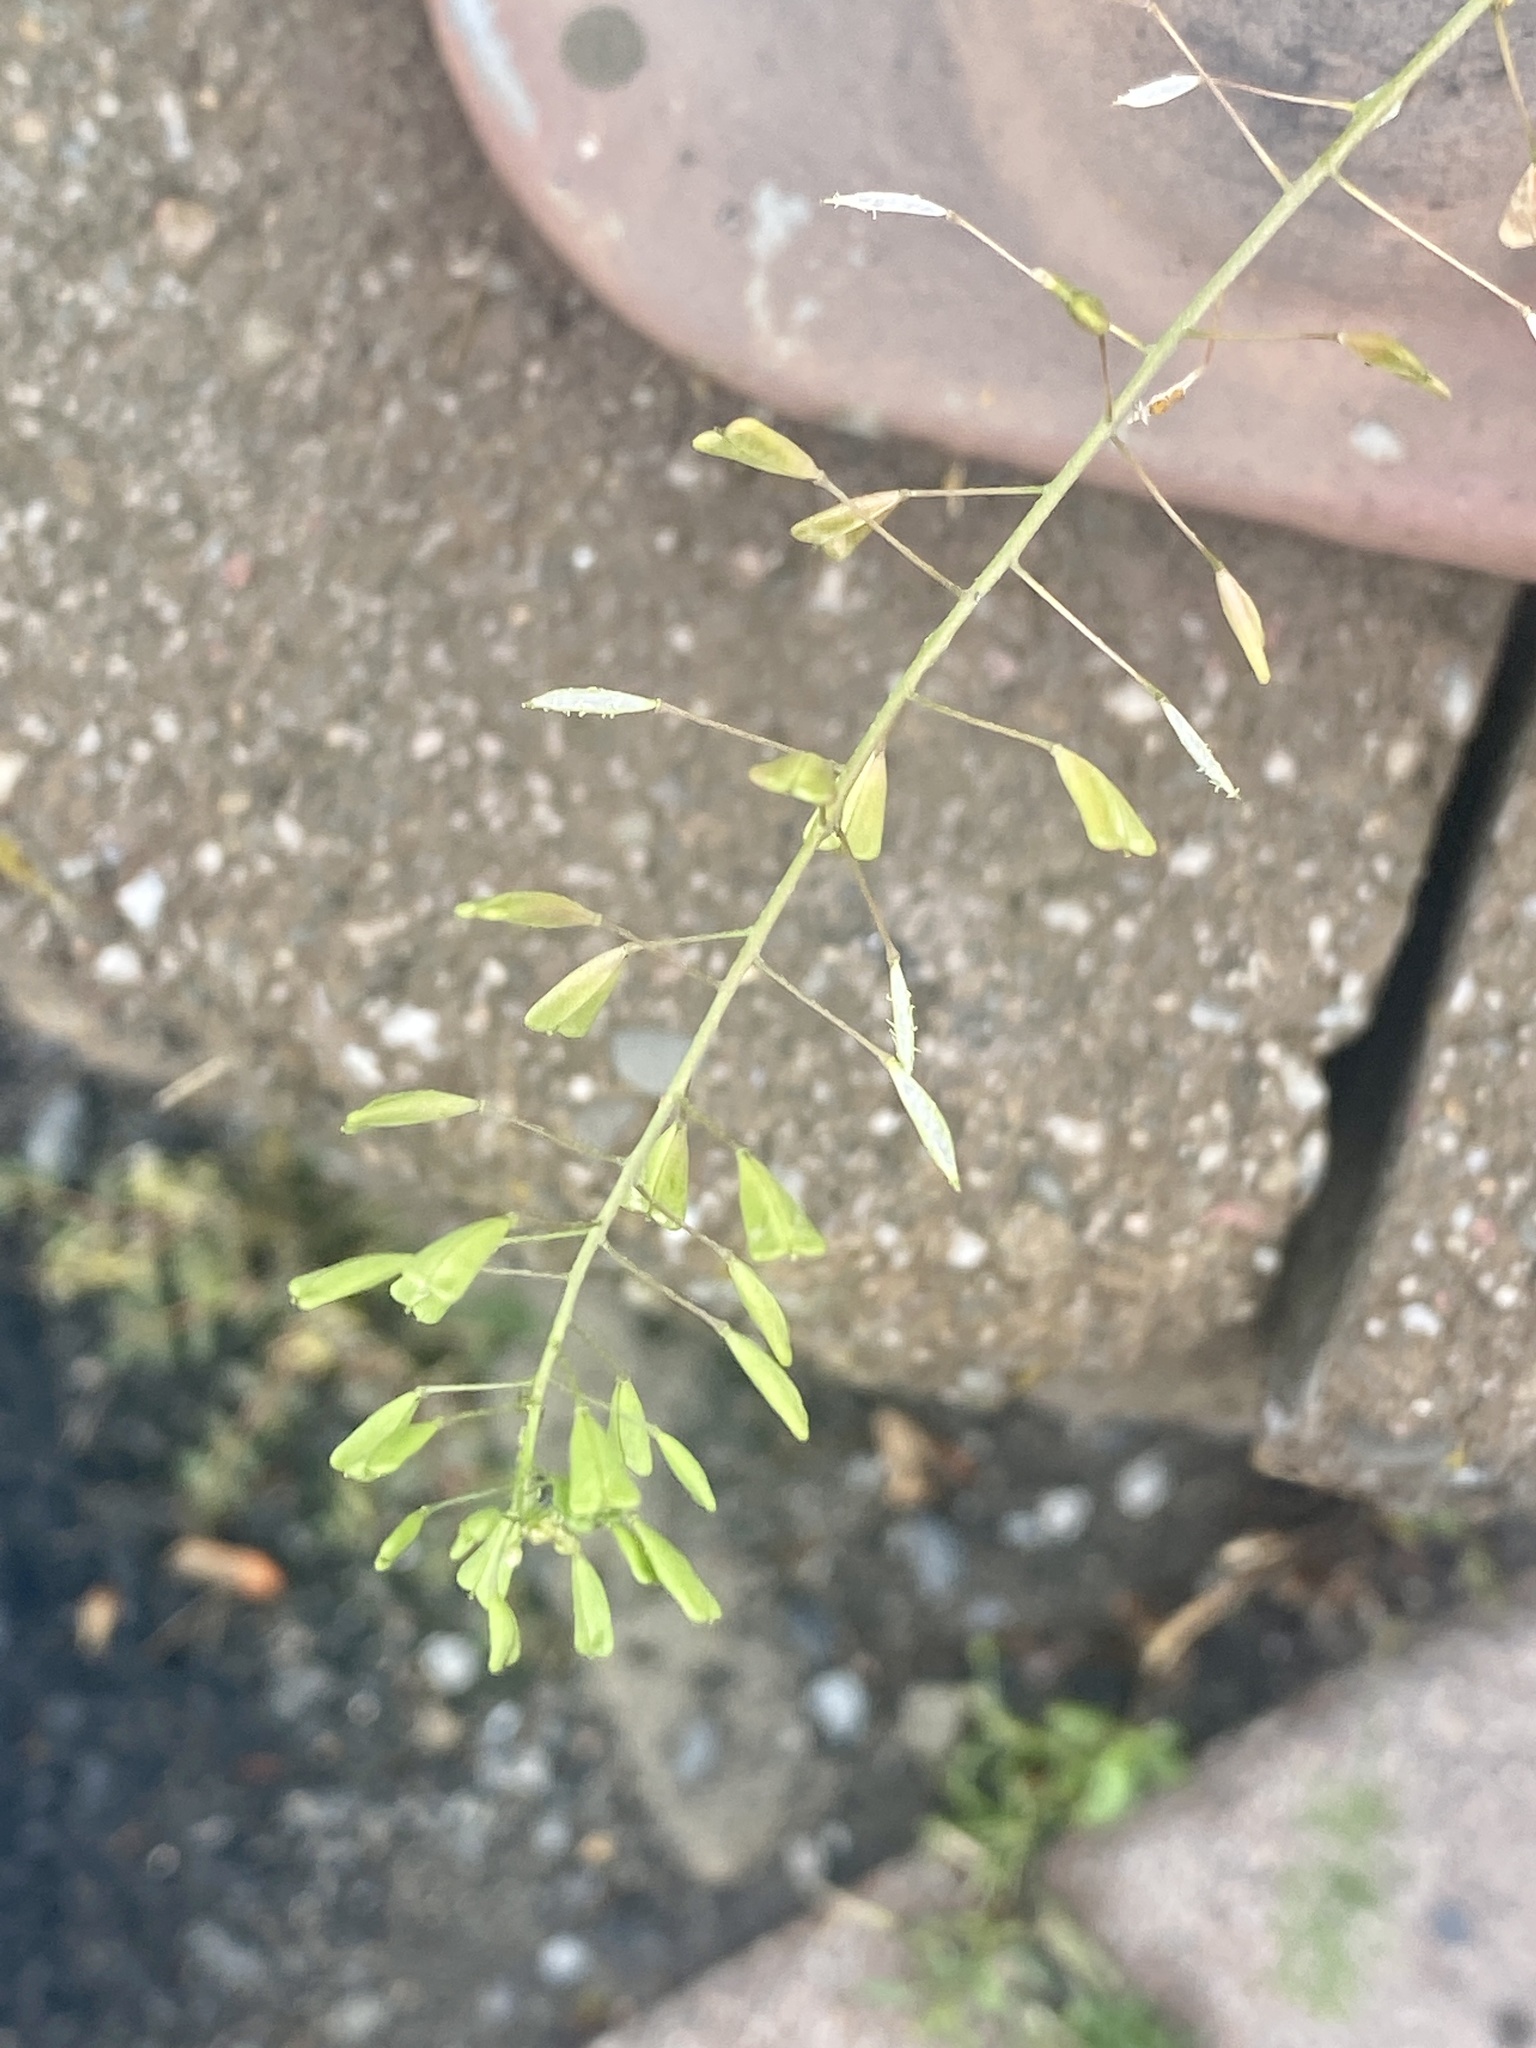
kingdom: Plantae
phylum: Tracheophyta
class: Magnoliopsida
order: Brassicales
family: Brassicaceae
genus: Capsella
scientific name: Capsella bursa-pastoris
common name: Shepherd's purse
